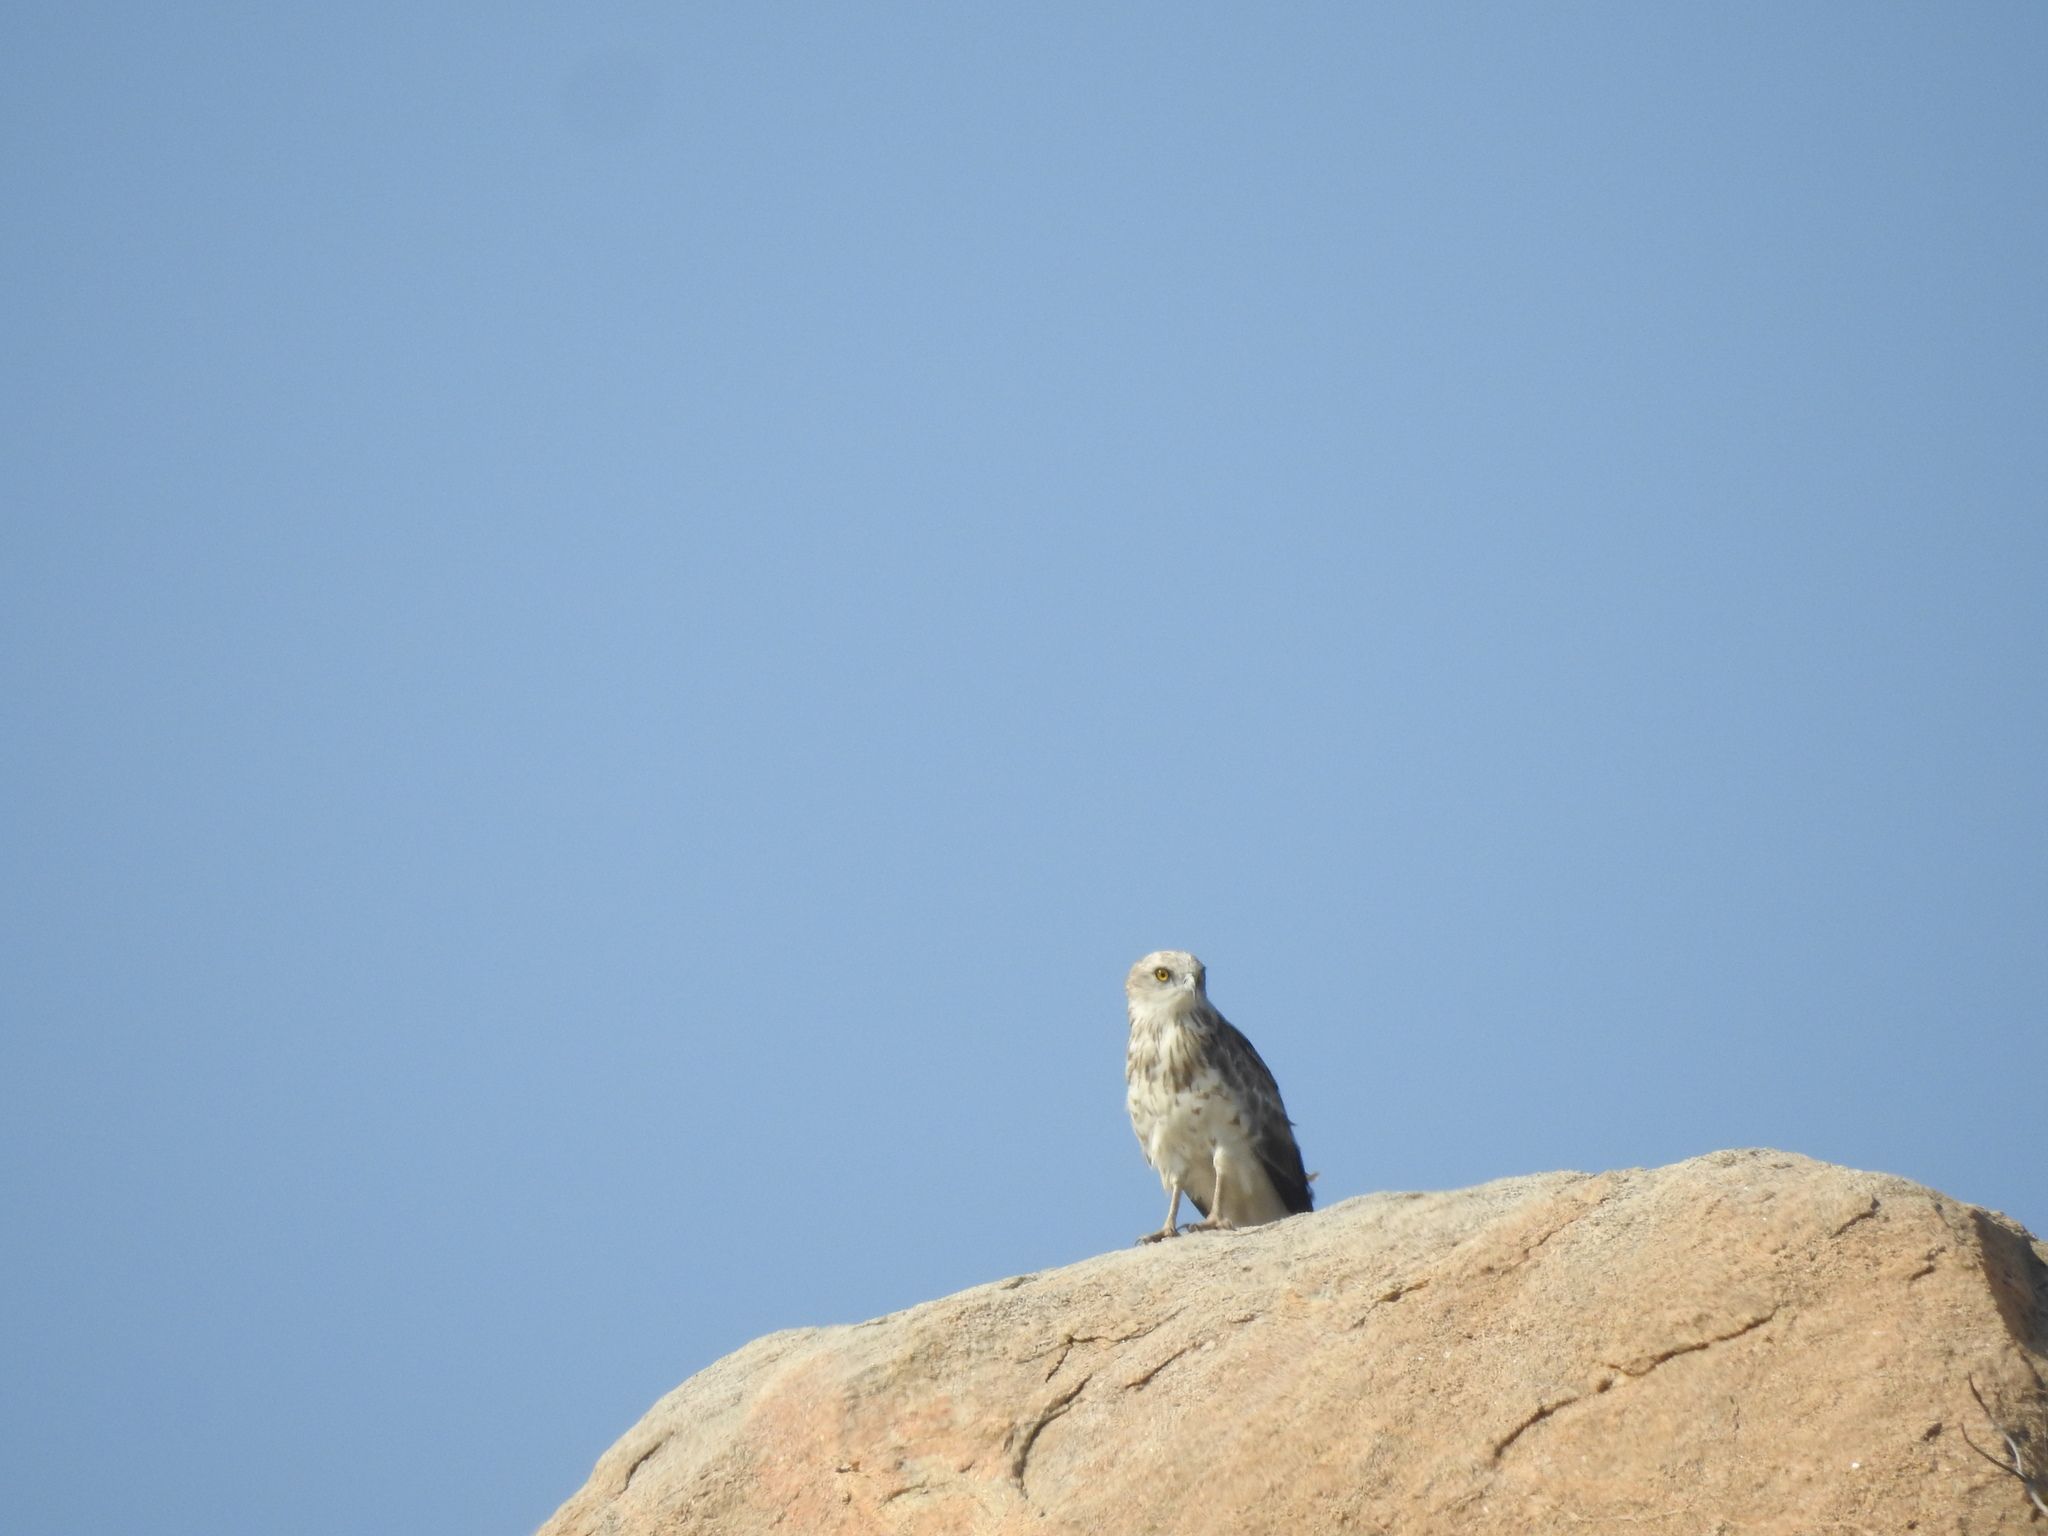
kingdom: Animalia
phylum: Chordata
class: Aves
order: Accipitriformes
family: Accipitridae
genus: Circaetus
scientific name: Circaetus gallicus
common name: Short-toed snake eagle
